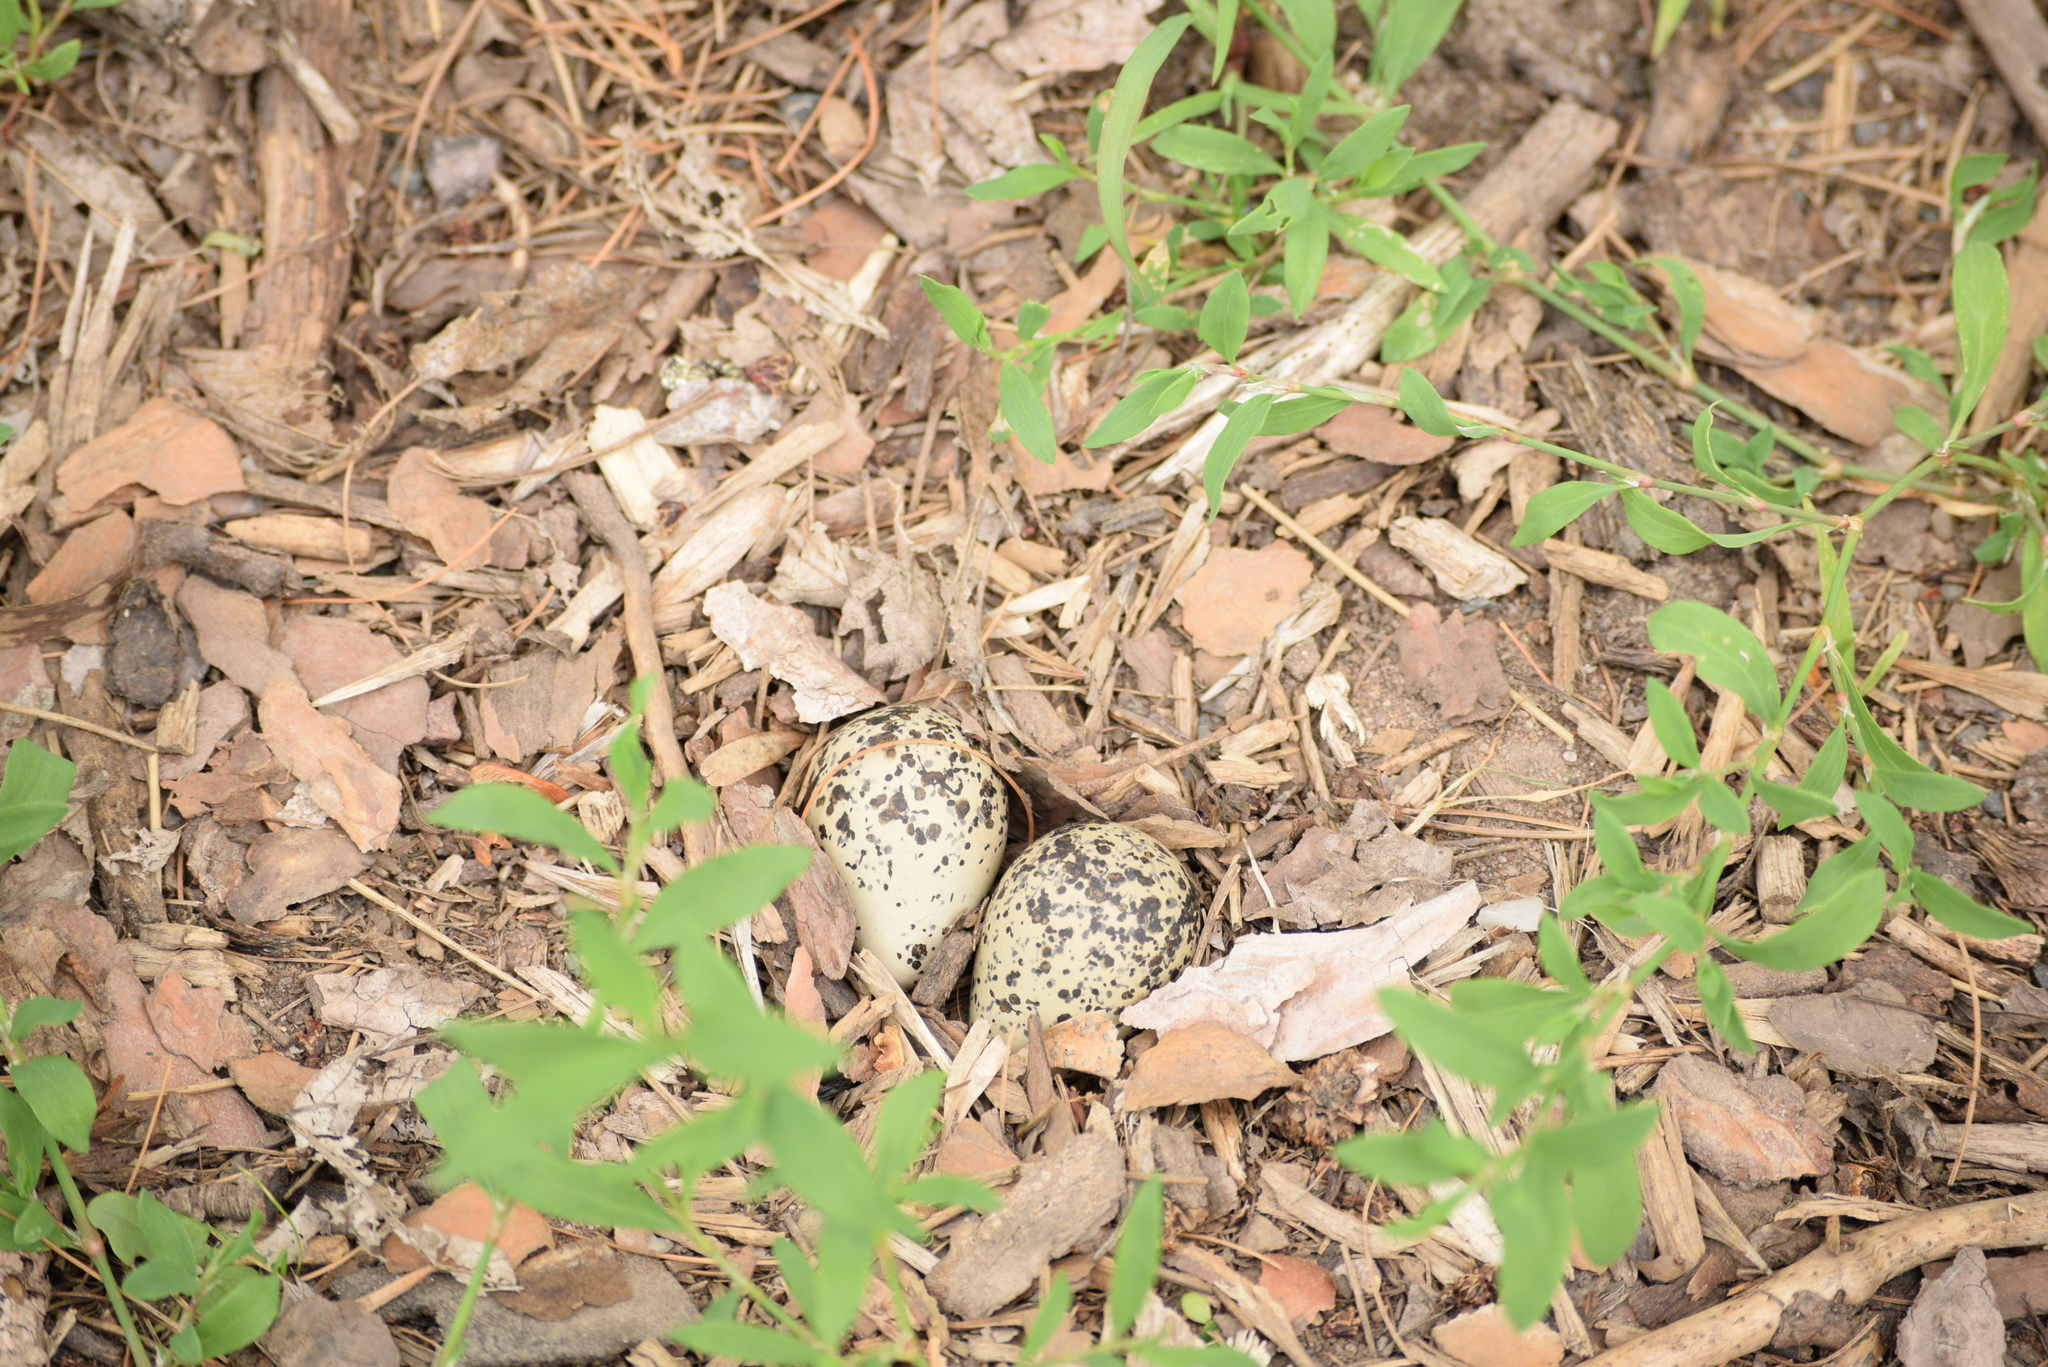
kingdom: Animalia
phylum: Chordata
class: Aves
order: Charadriiformes
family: Charadriidae
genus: Charadrius
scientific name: Charadrius vociferus
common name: Killdeer
